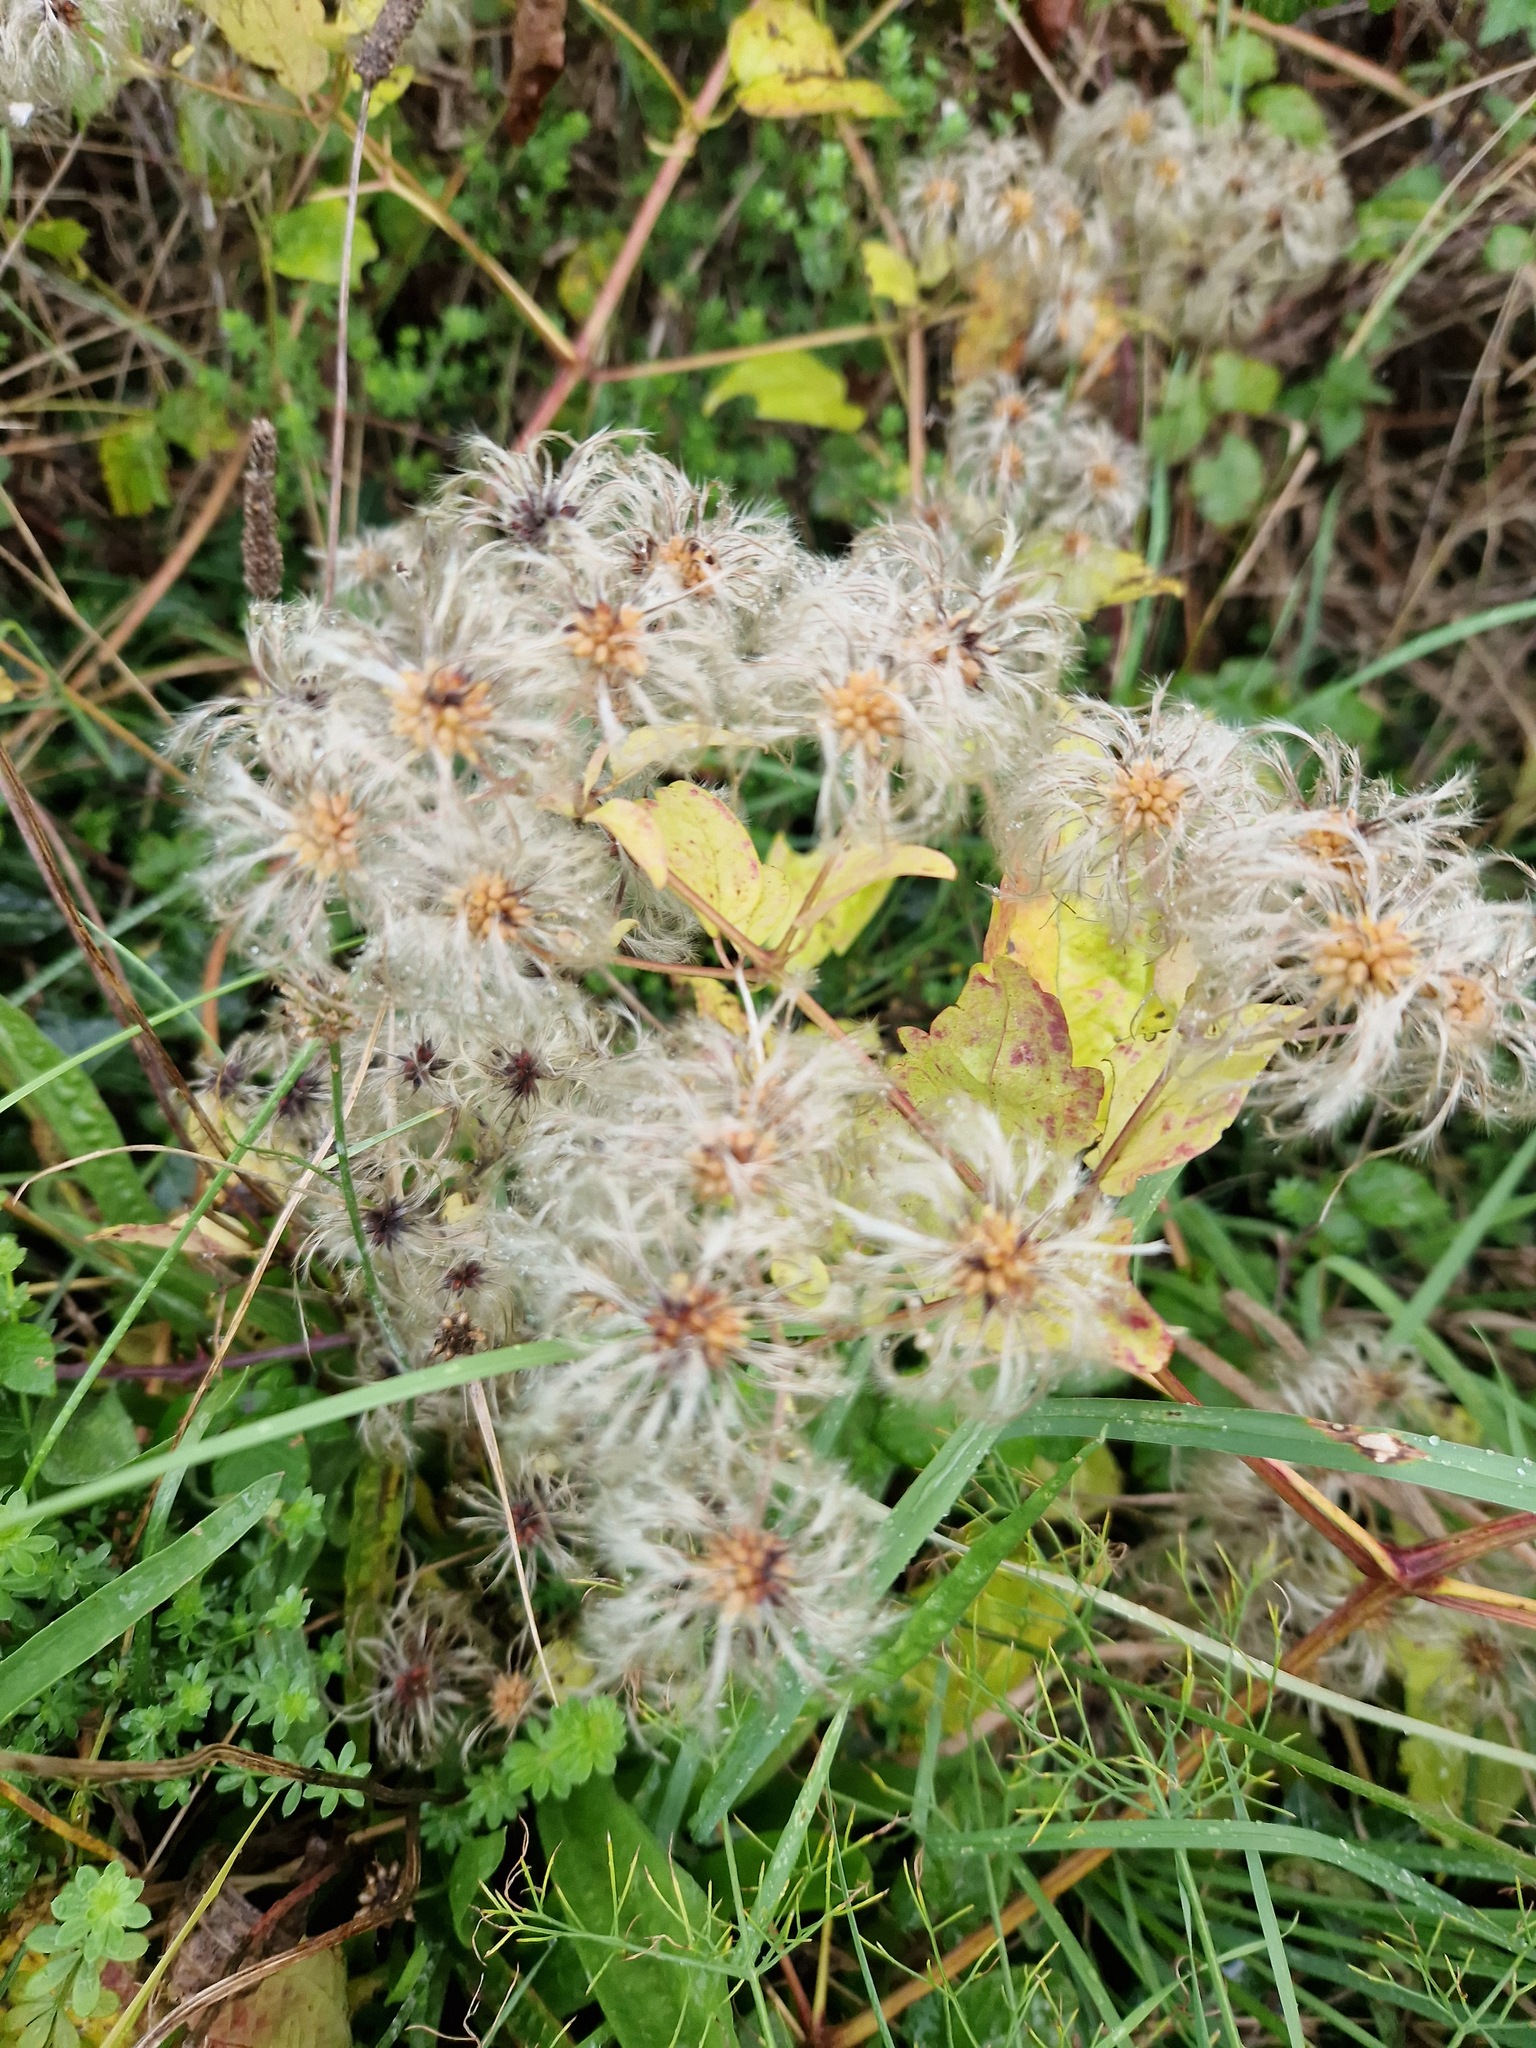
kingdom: Plantae
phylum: Tracheophyta
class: Magnoliopsida
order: Ranunculales
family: Ranunculaceae
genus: Clematis
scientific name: Clematis vitalba
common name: Evergreen clematis
